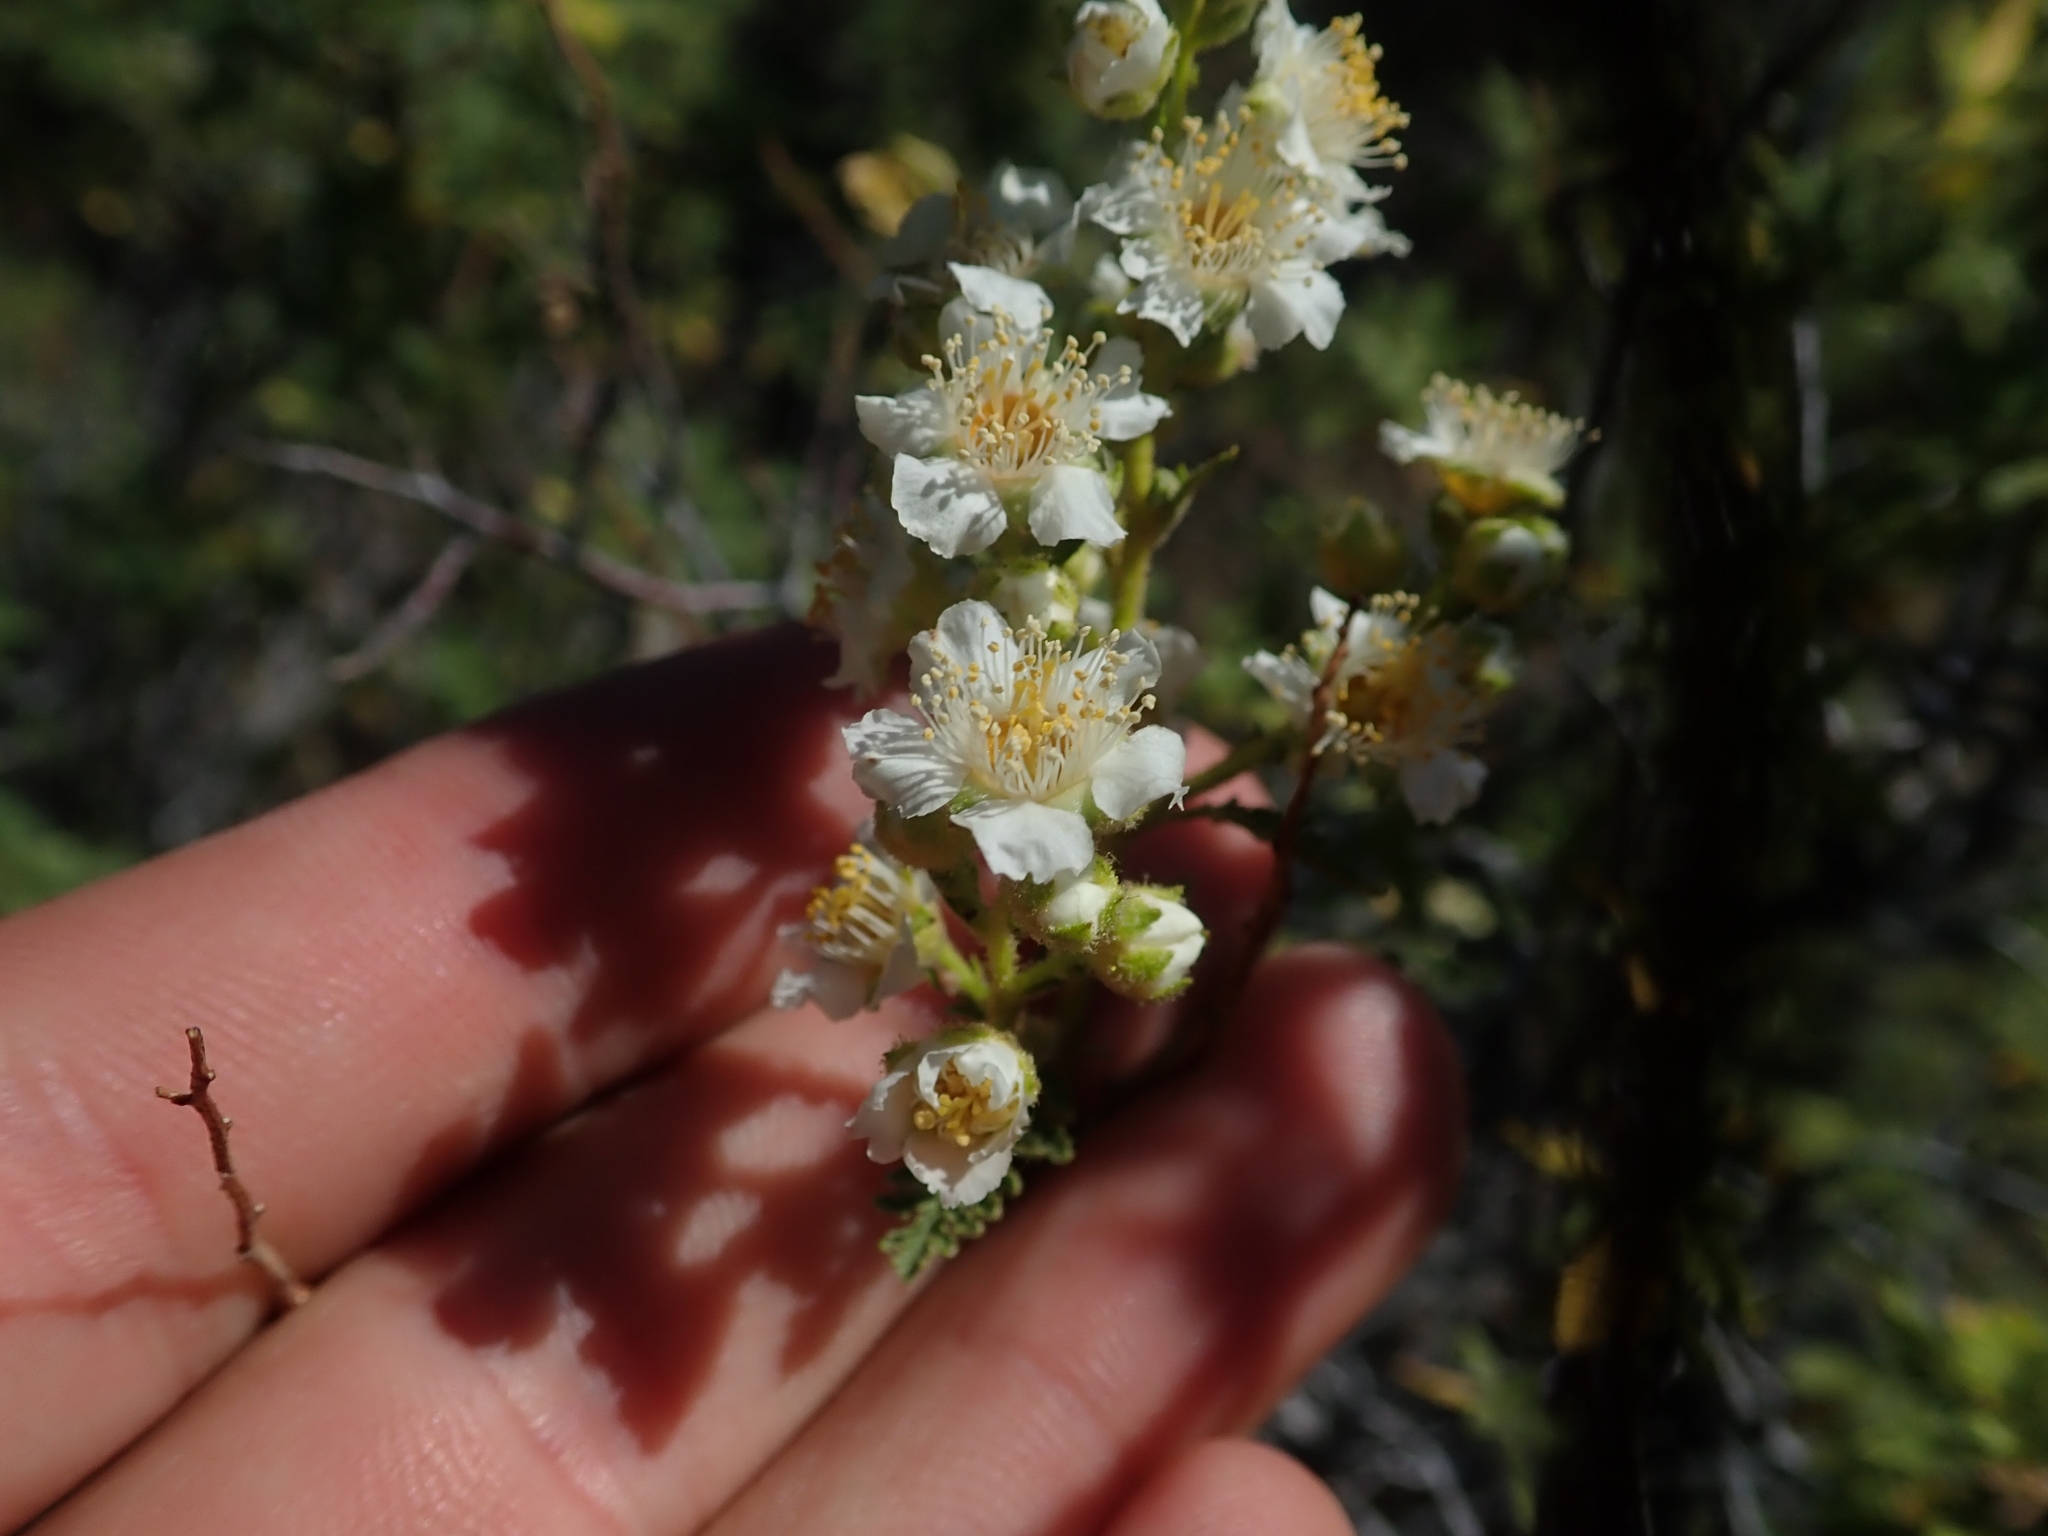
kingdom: Plantae
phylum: Tracheophyta
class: Magnoliopsida
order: Rosales
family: Rosaceae
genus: Chamaebatiaria
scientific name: Chamaebatiaria millefolium
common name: Fernbush
